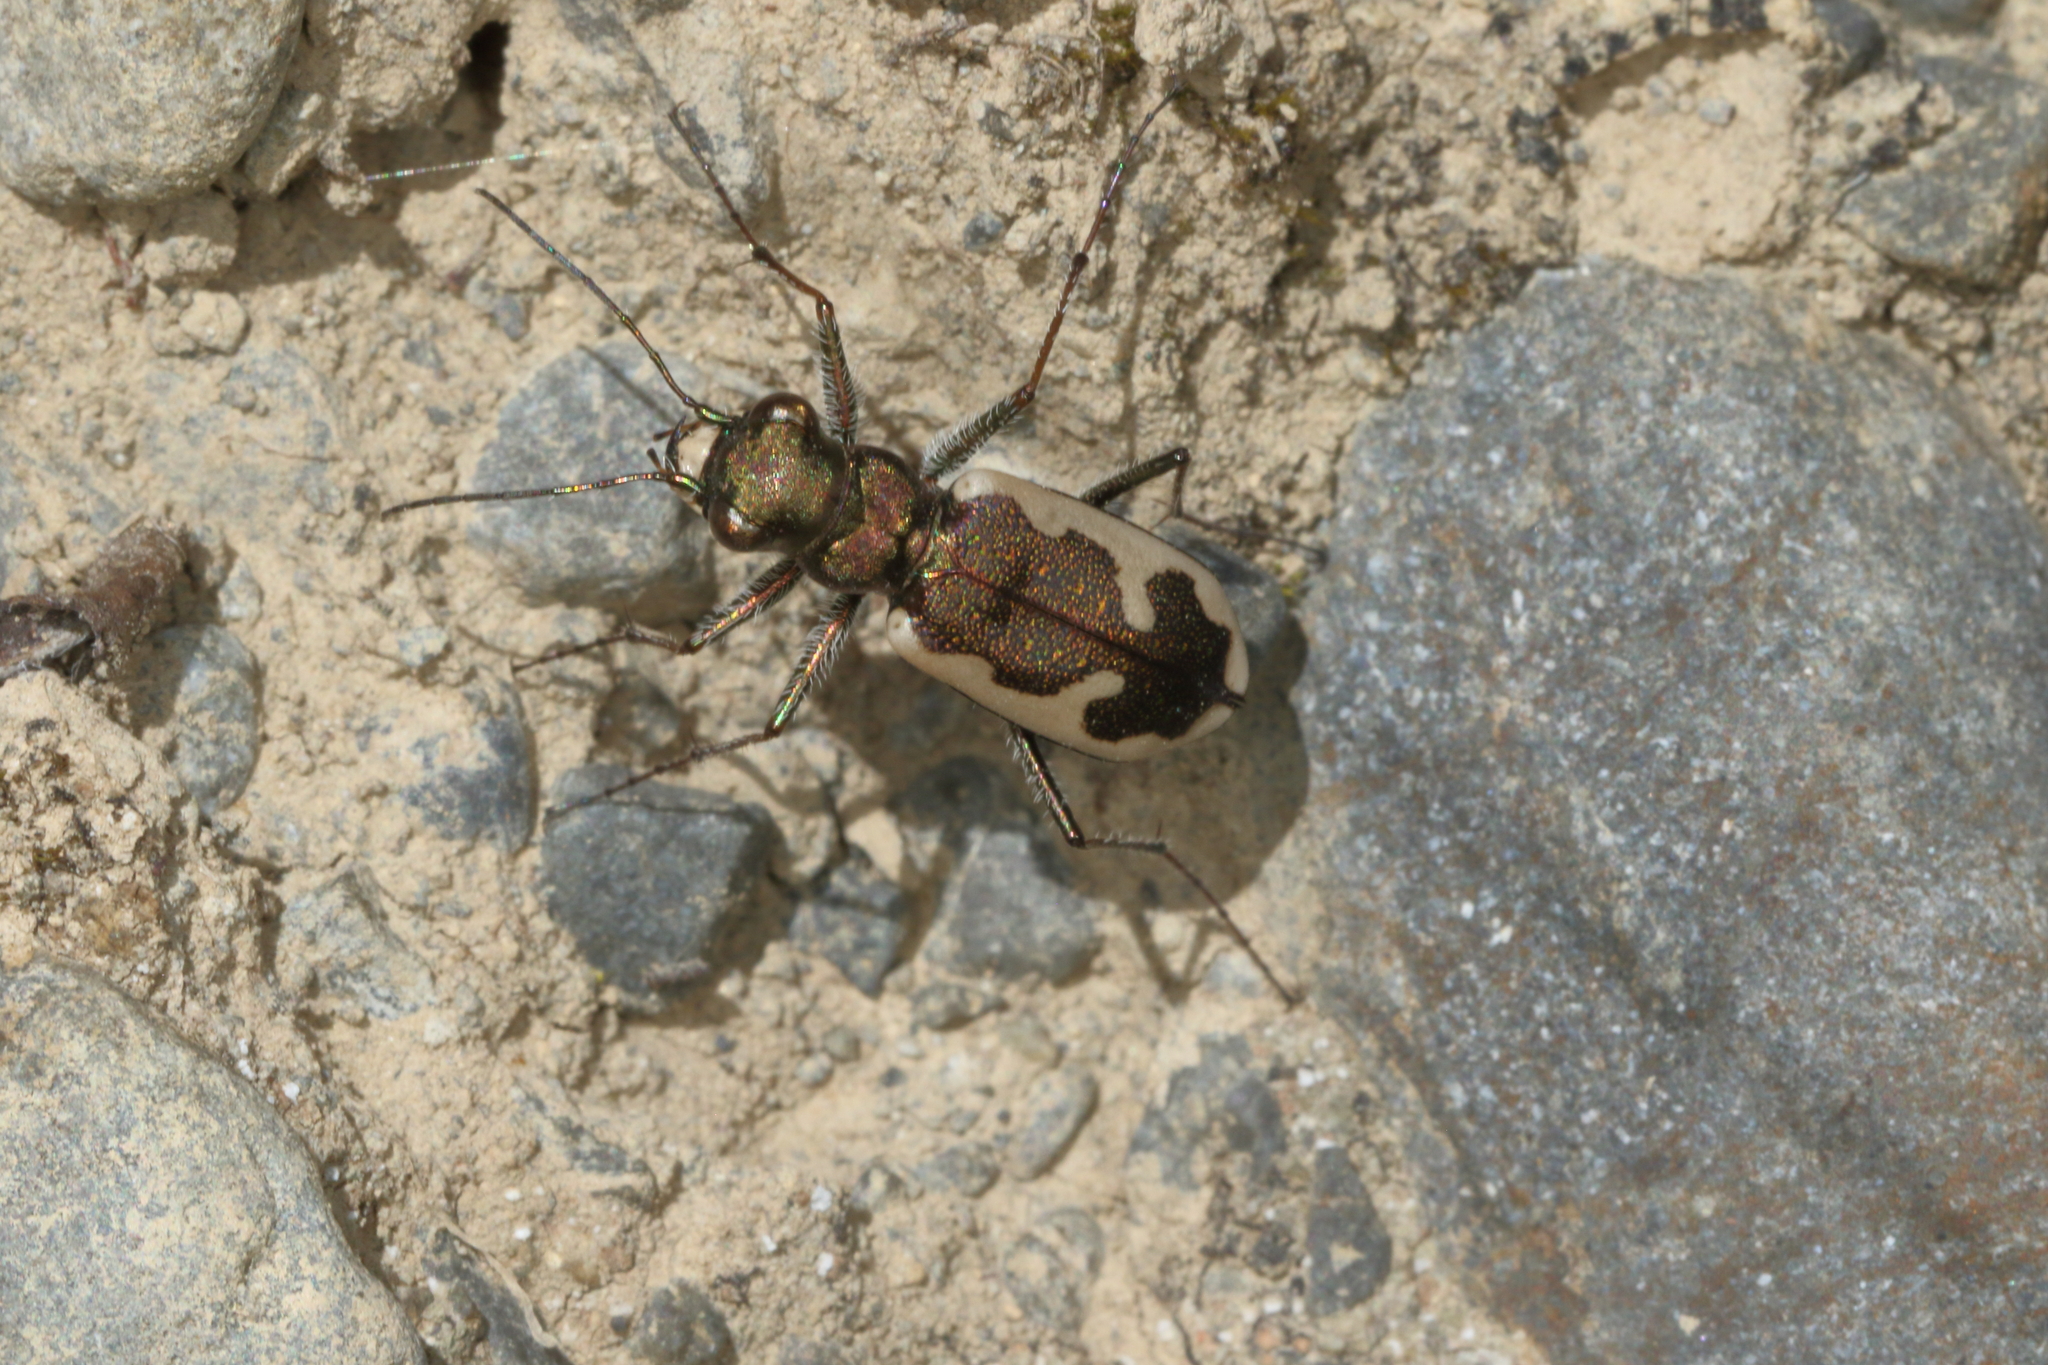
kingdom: Animalia
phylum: Arthropoda
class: Insecta
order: Coleoptera
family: Carabidae
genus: Neocicindela
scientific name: Neocicindela latecincta
